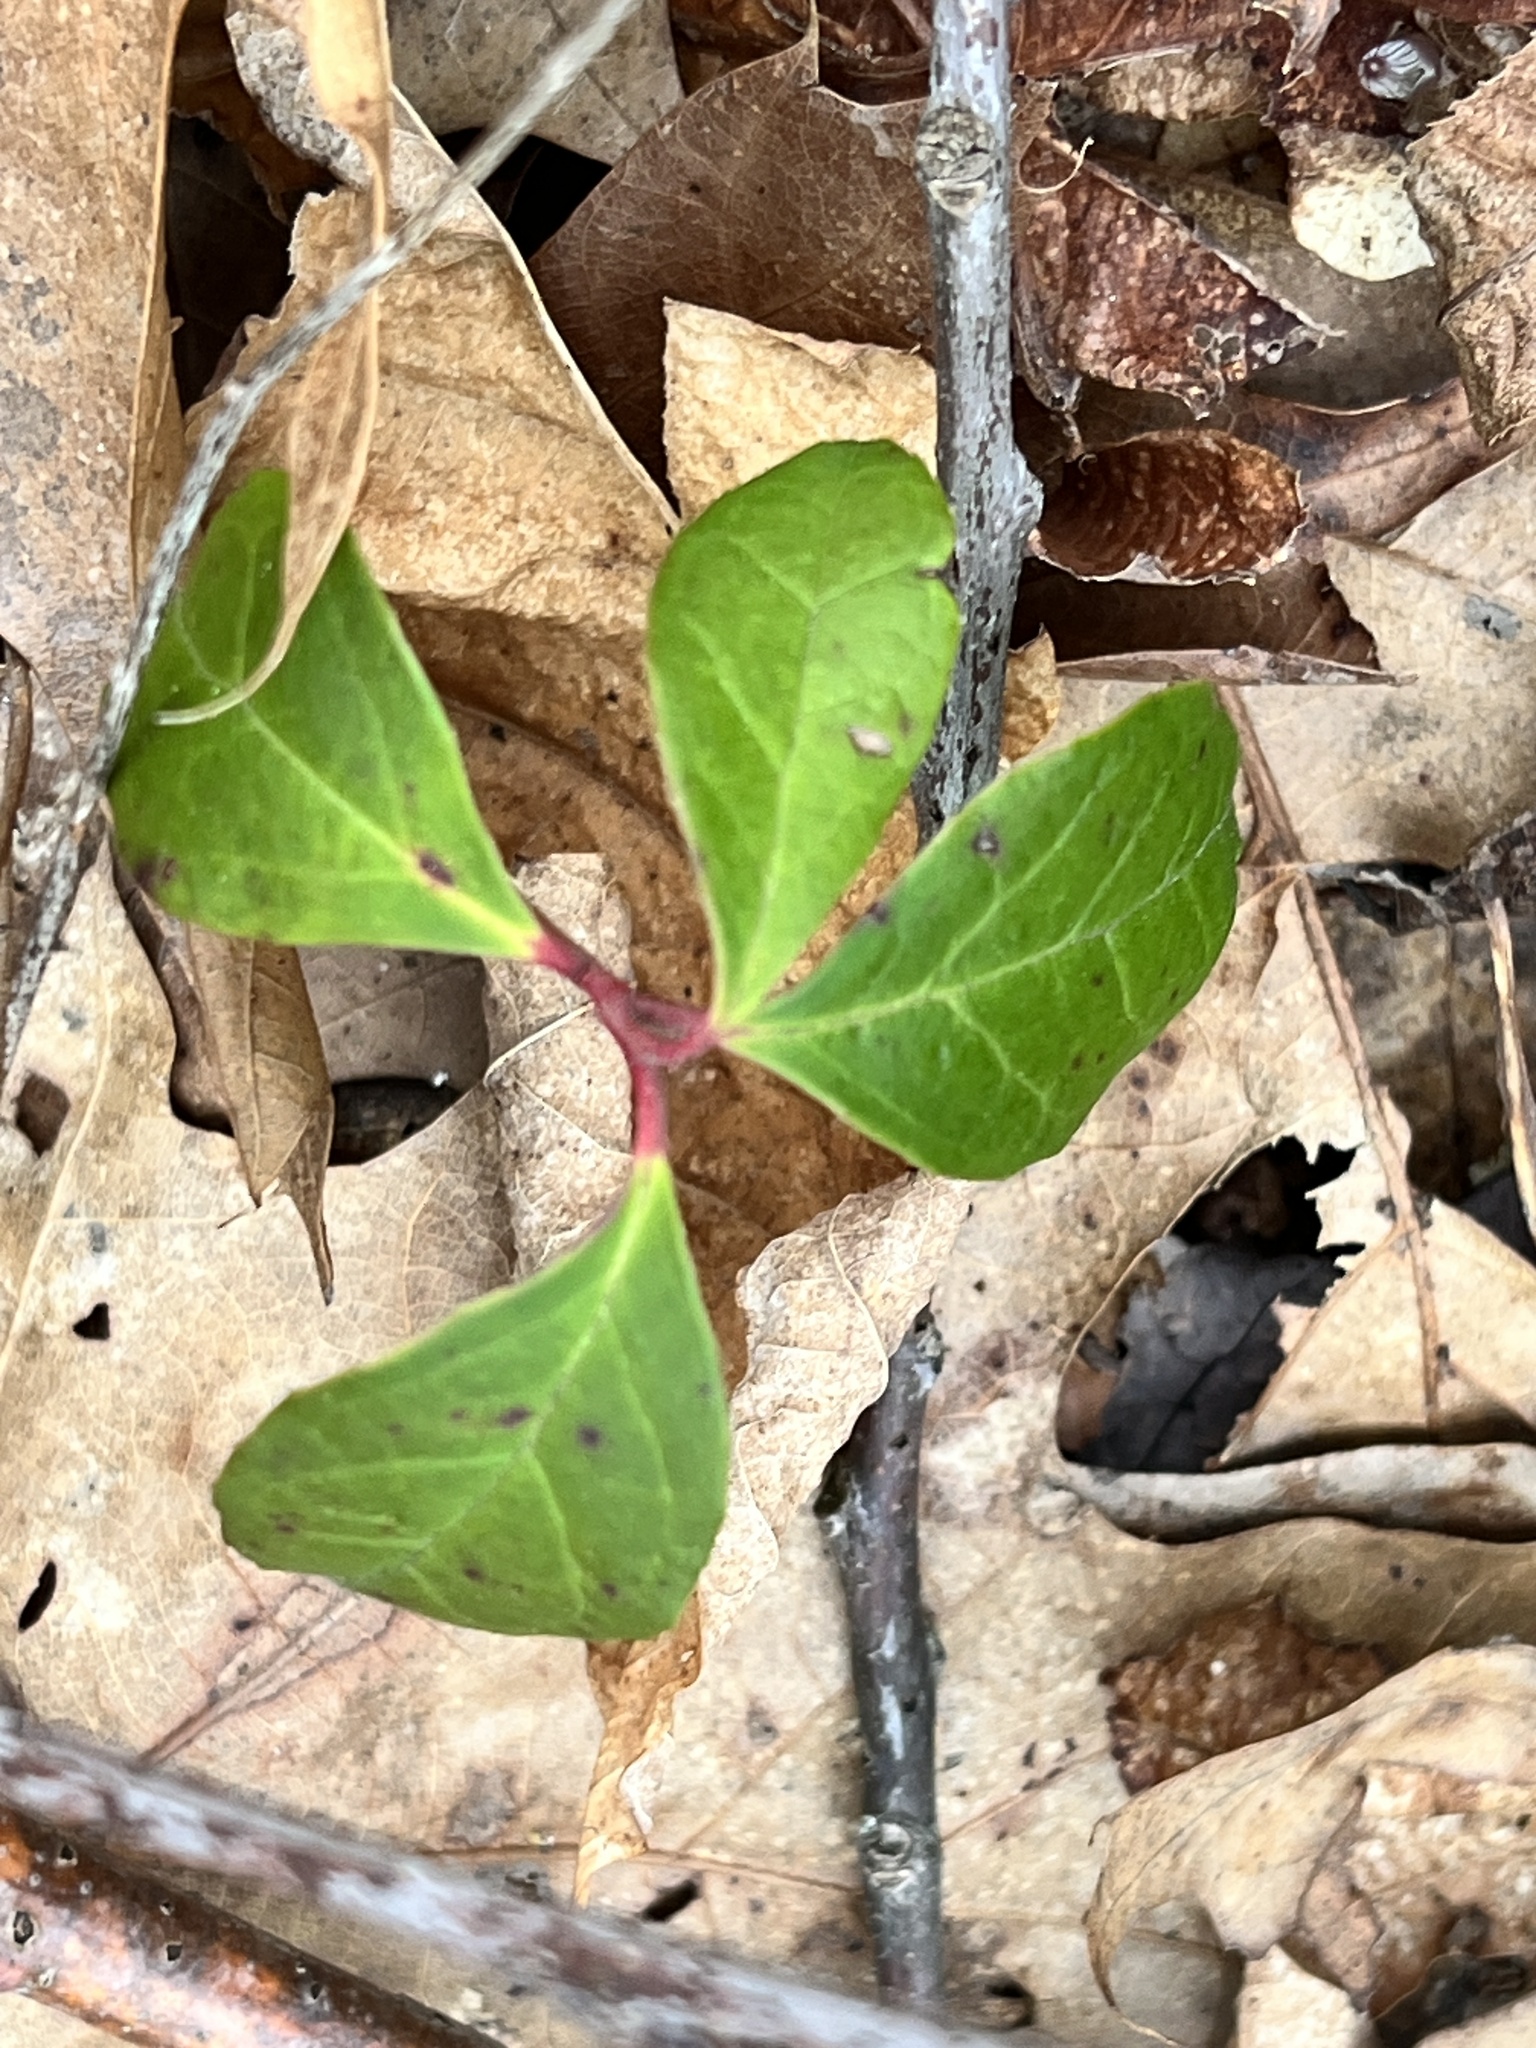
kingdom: Plantae
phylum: Tracheophyta
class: Magnoliopsida
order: Ericales
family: Ericaceae
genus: Gaultheria
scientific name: Gaultheria procumbens
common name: Checkerberry
